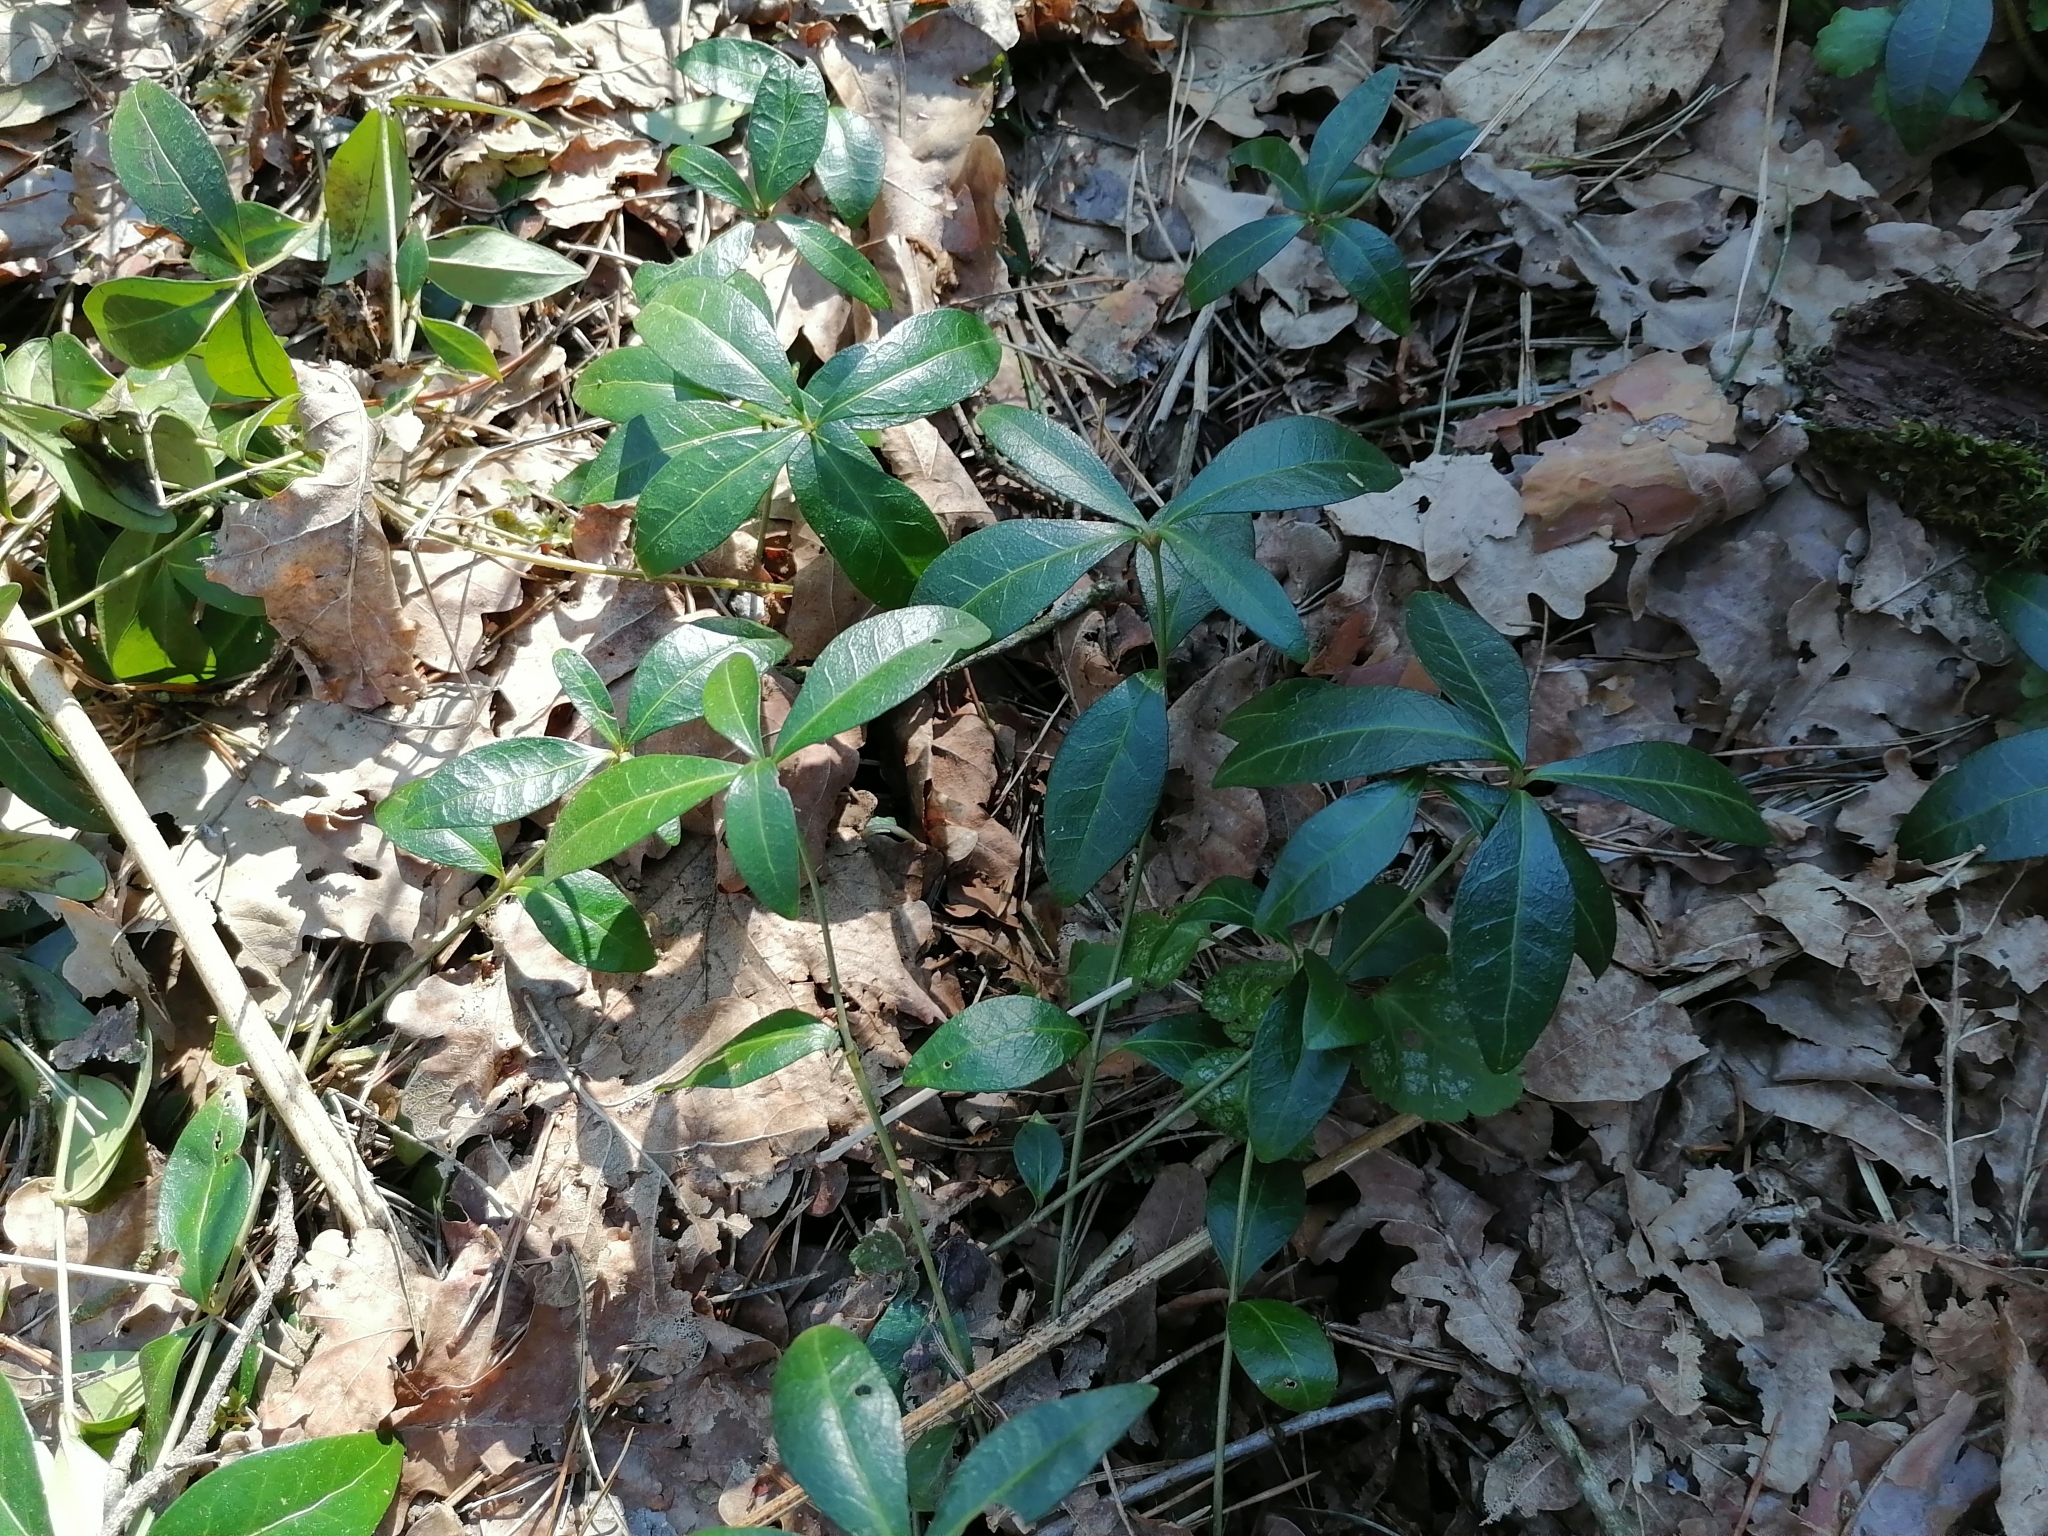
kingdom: Plantae
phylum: Tracheophyta
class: Magnoliopsida
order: Gentianales
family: Apocynaceae
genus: Vinca
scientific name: Vinca minor
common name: Lesser periwinkle
